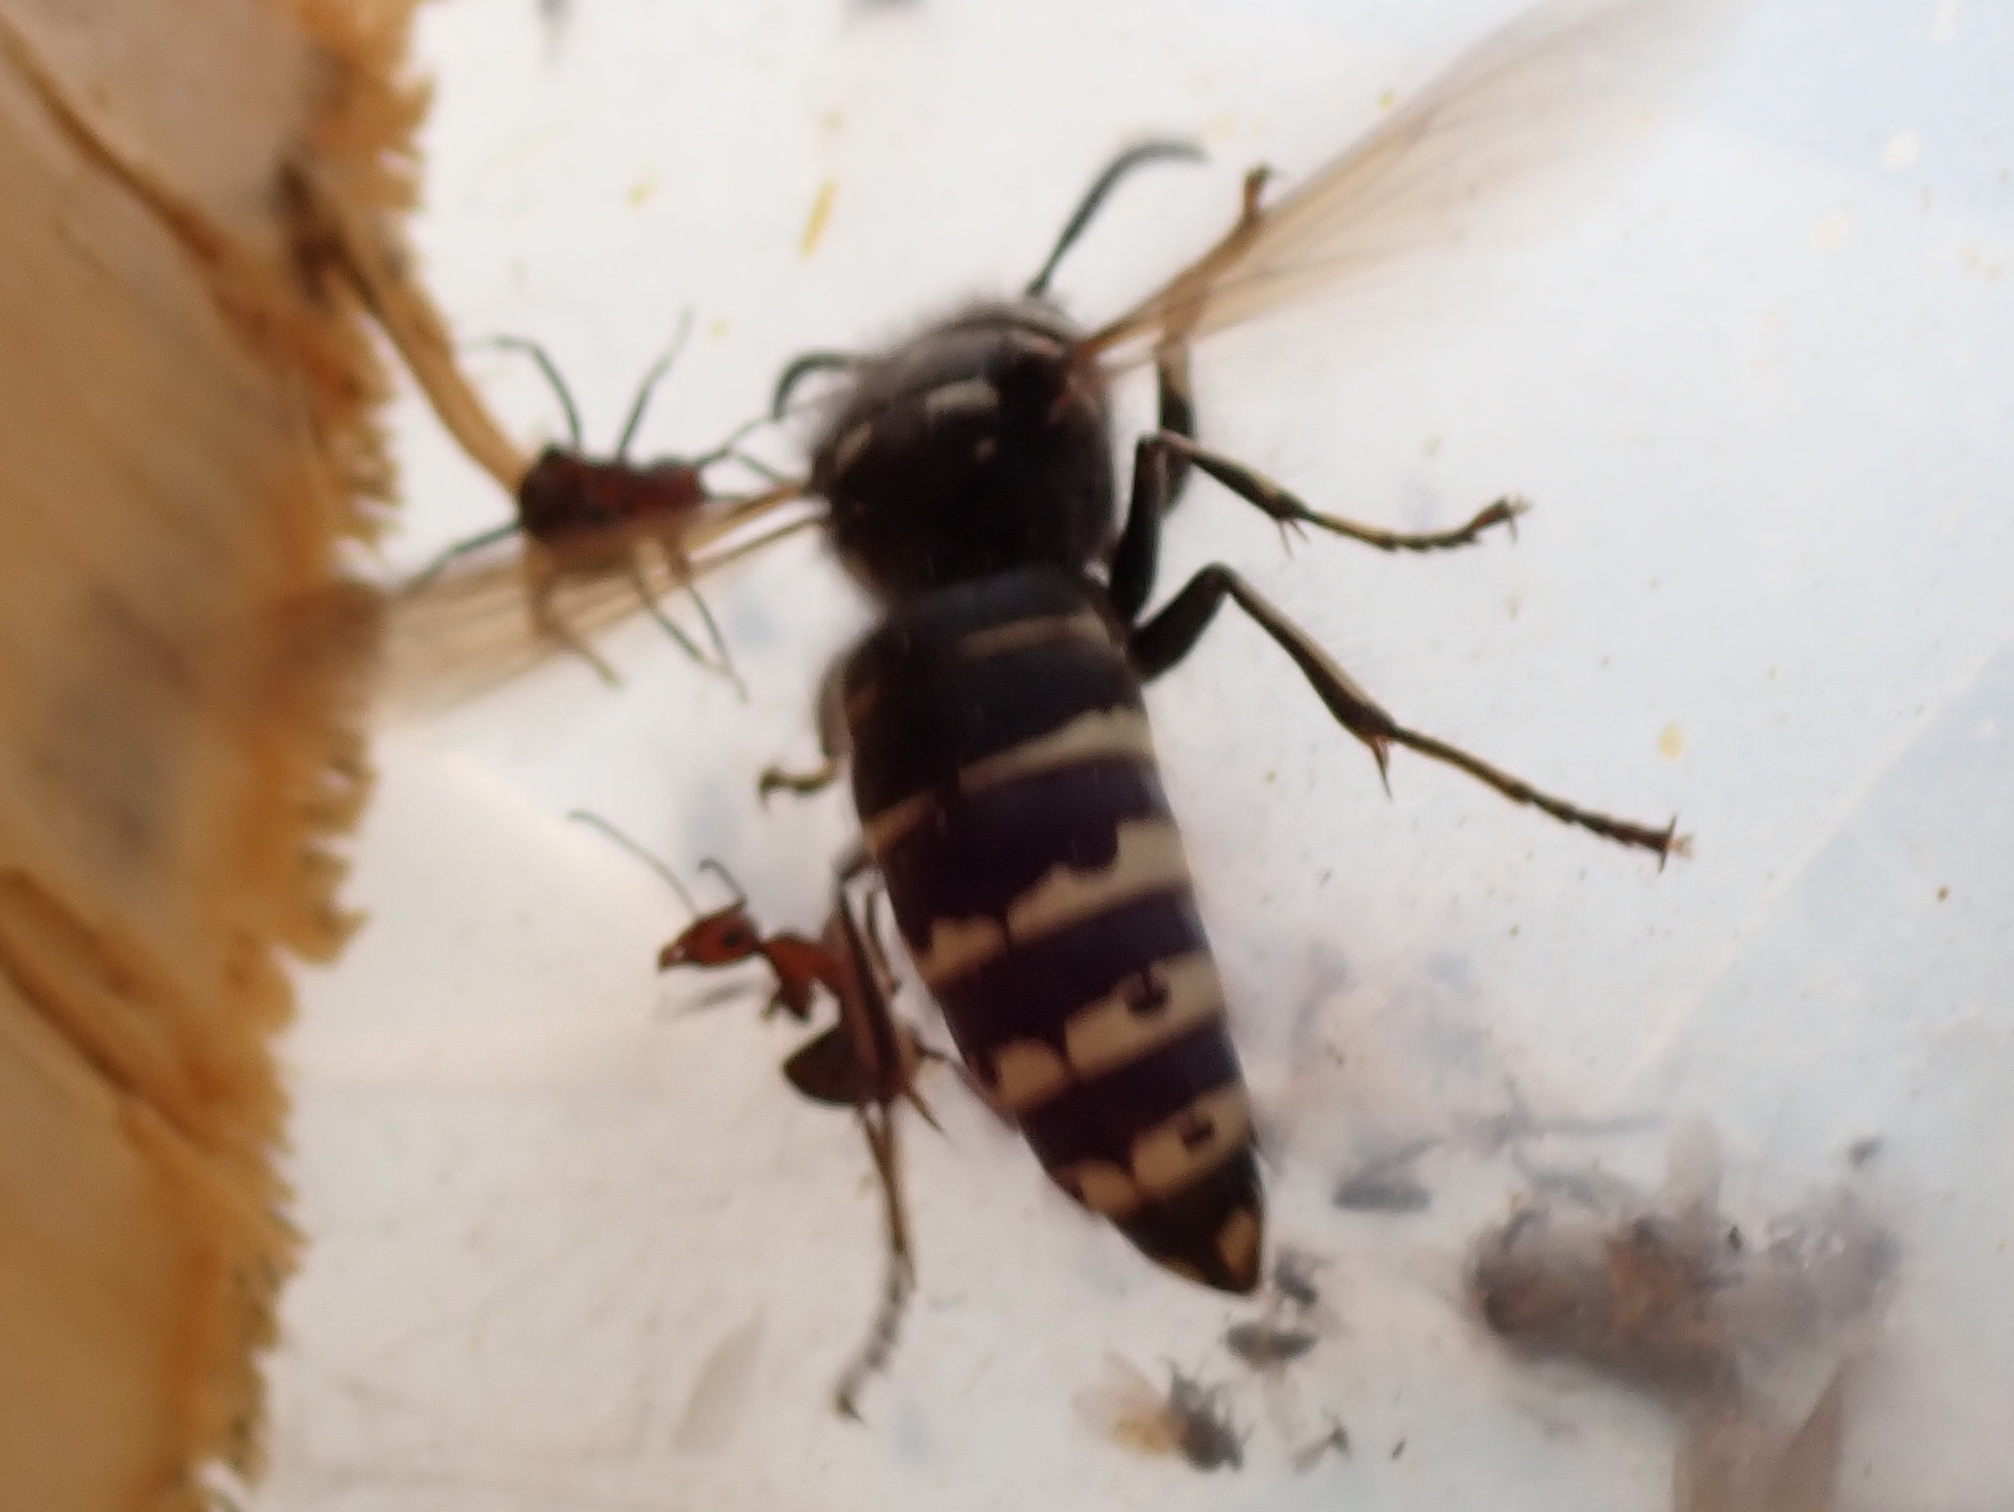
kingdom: Animalia
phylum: Arthropoda
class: Insecta
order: Hymenoptera
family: Vespidae
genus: Dolichovespula
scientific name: Dolichovespula adulterina
